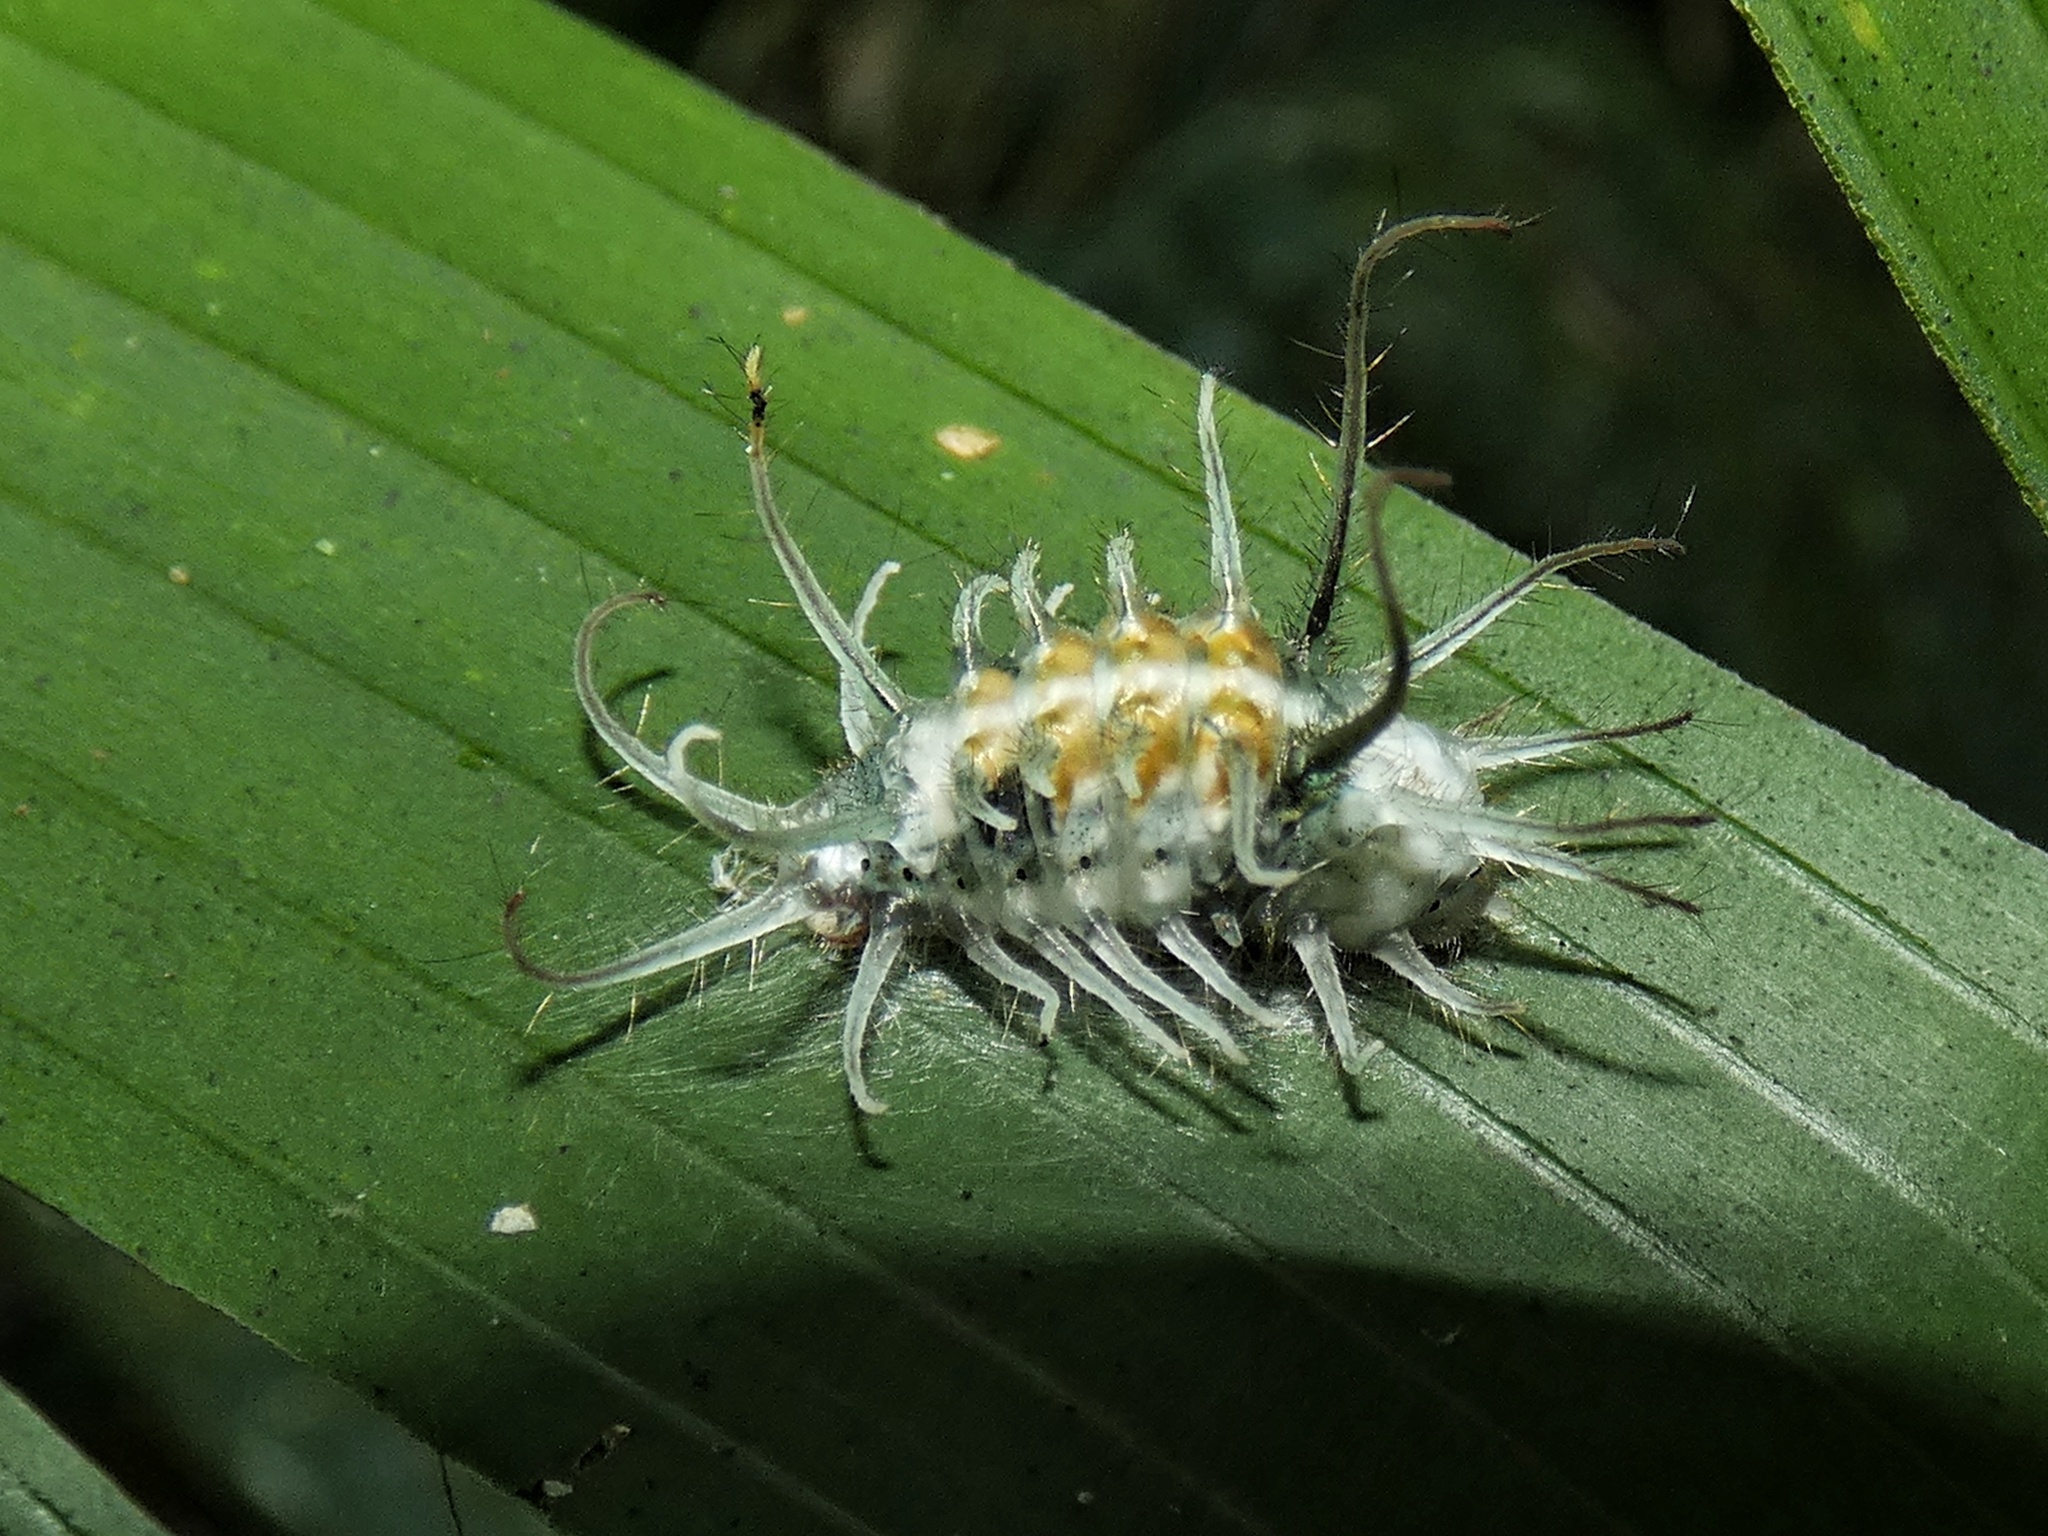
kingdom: Animalia
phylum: Arthropoda
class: Insecta
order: Lepidoptera
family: Lycaenidae
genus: Thecla
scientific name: Thecla ligurina
